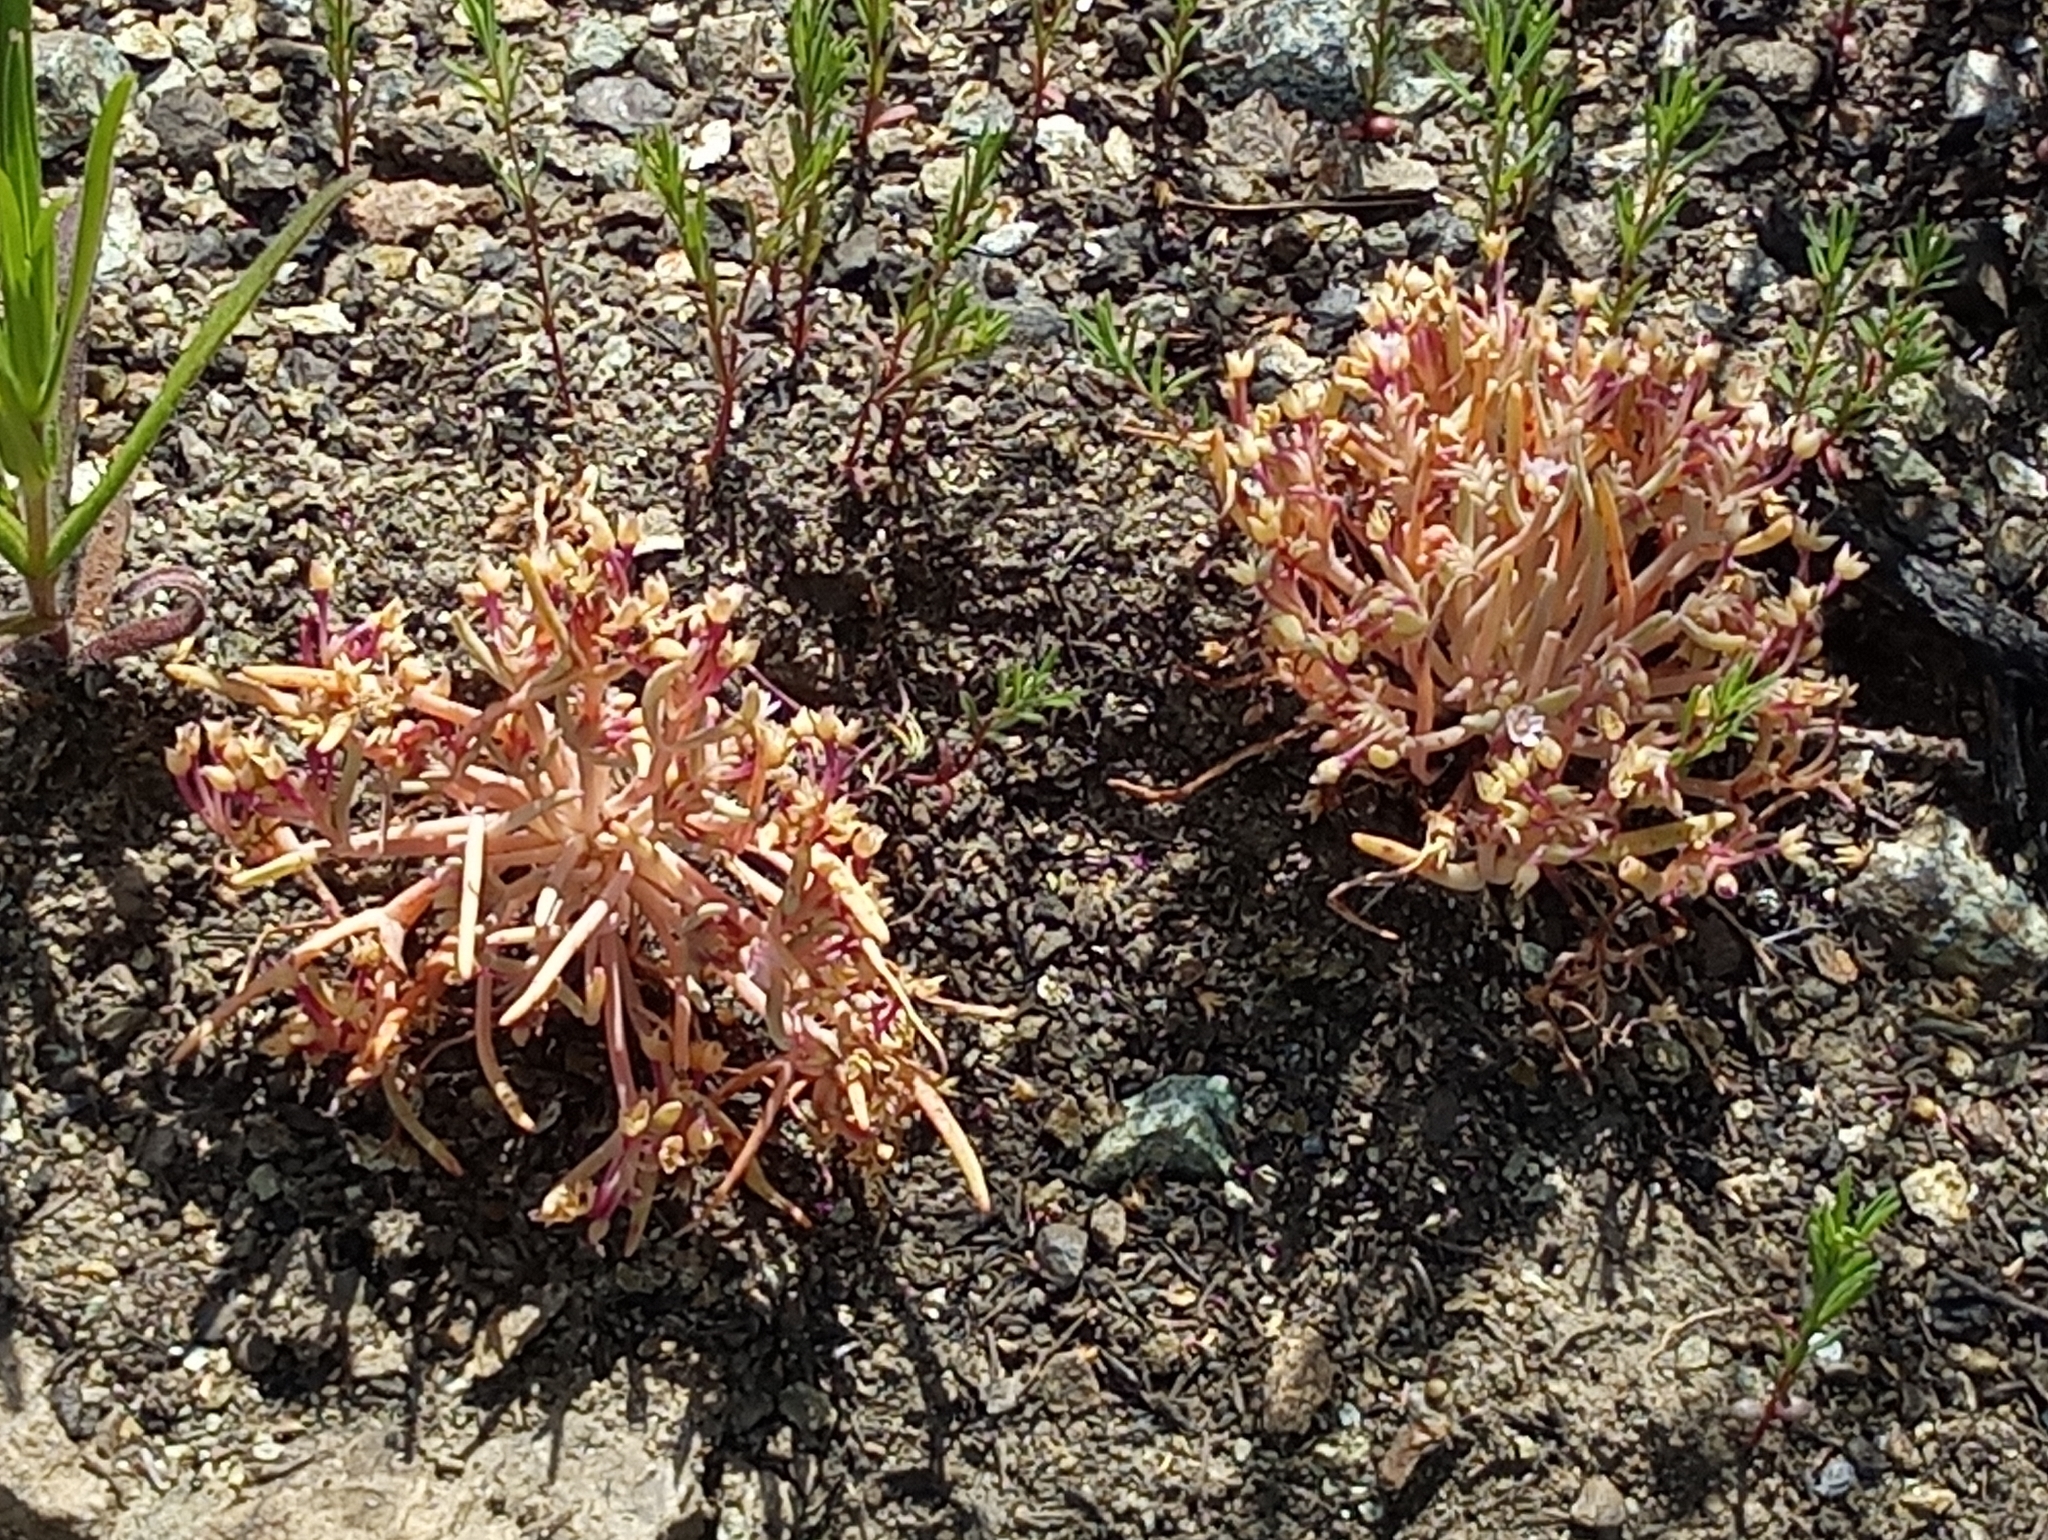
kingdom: Plantae
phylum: Tracheophyta
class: Magnoliopsida
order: Caryophyllales
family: Montiaceae
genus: Claytonia
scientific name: Claytonia exigua
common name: Pale spring beauty
